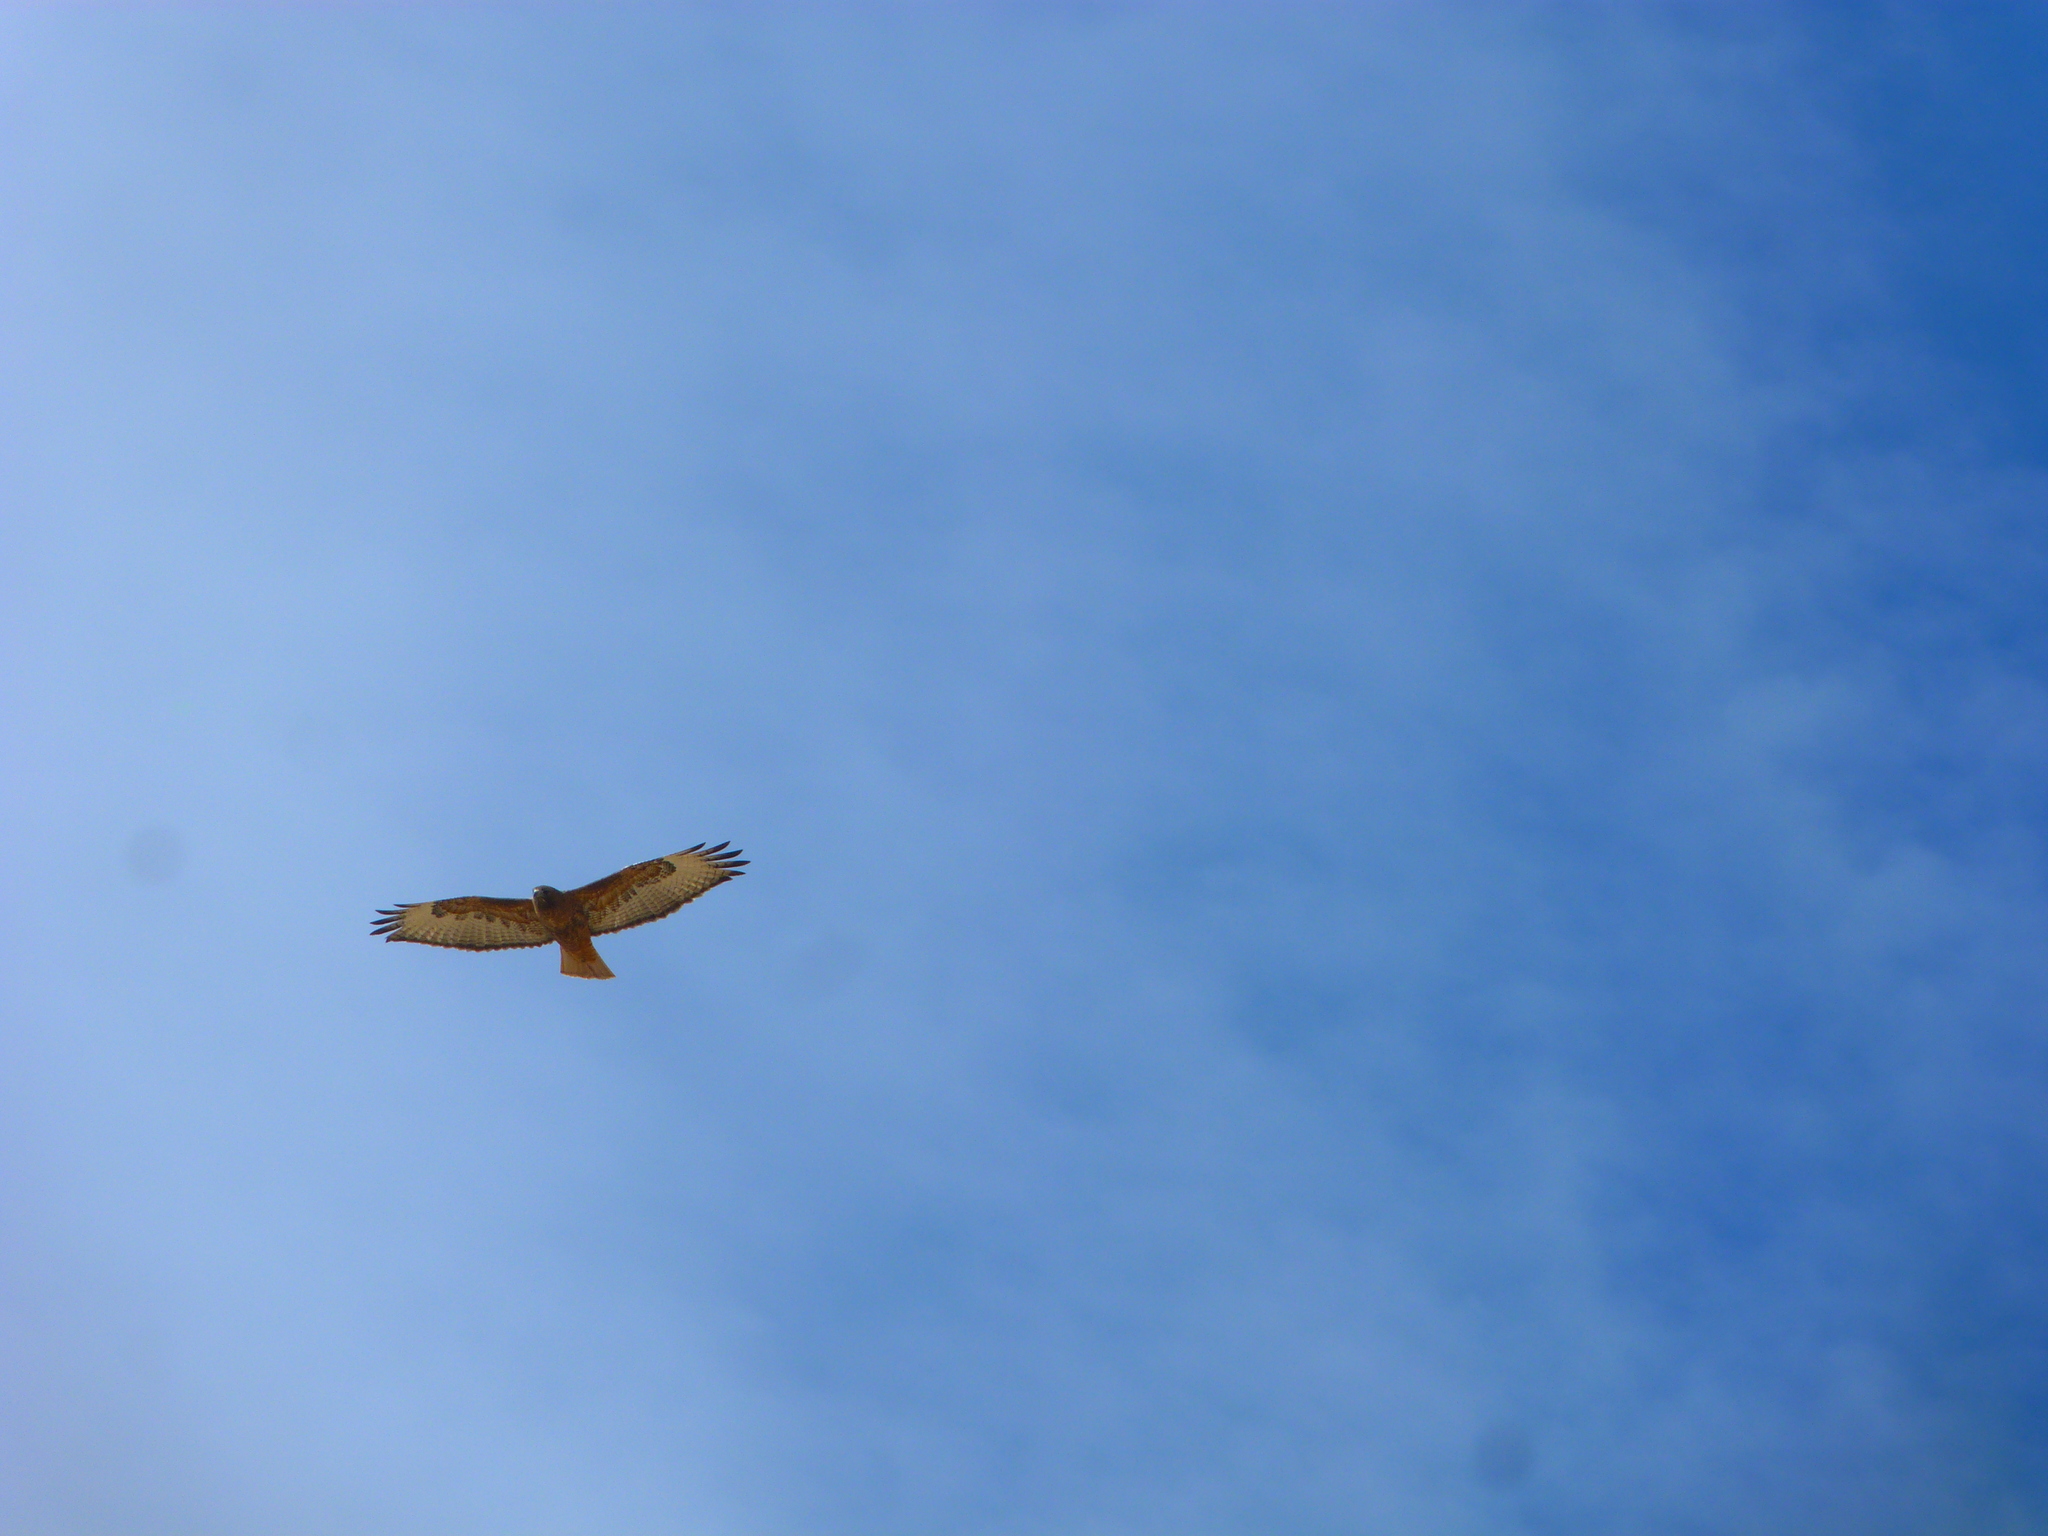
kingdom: Animalia
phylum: Chordata
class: Aves
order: Accipitriformes
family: Accipitridae
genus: Buteo
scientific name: Buteo jamaicensis
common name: Red-tailed hawk
